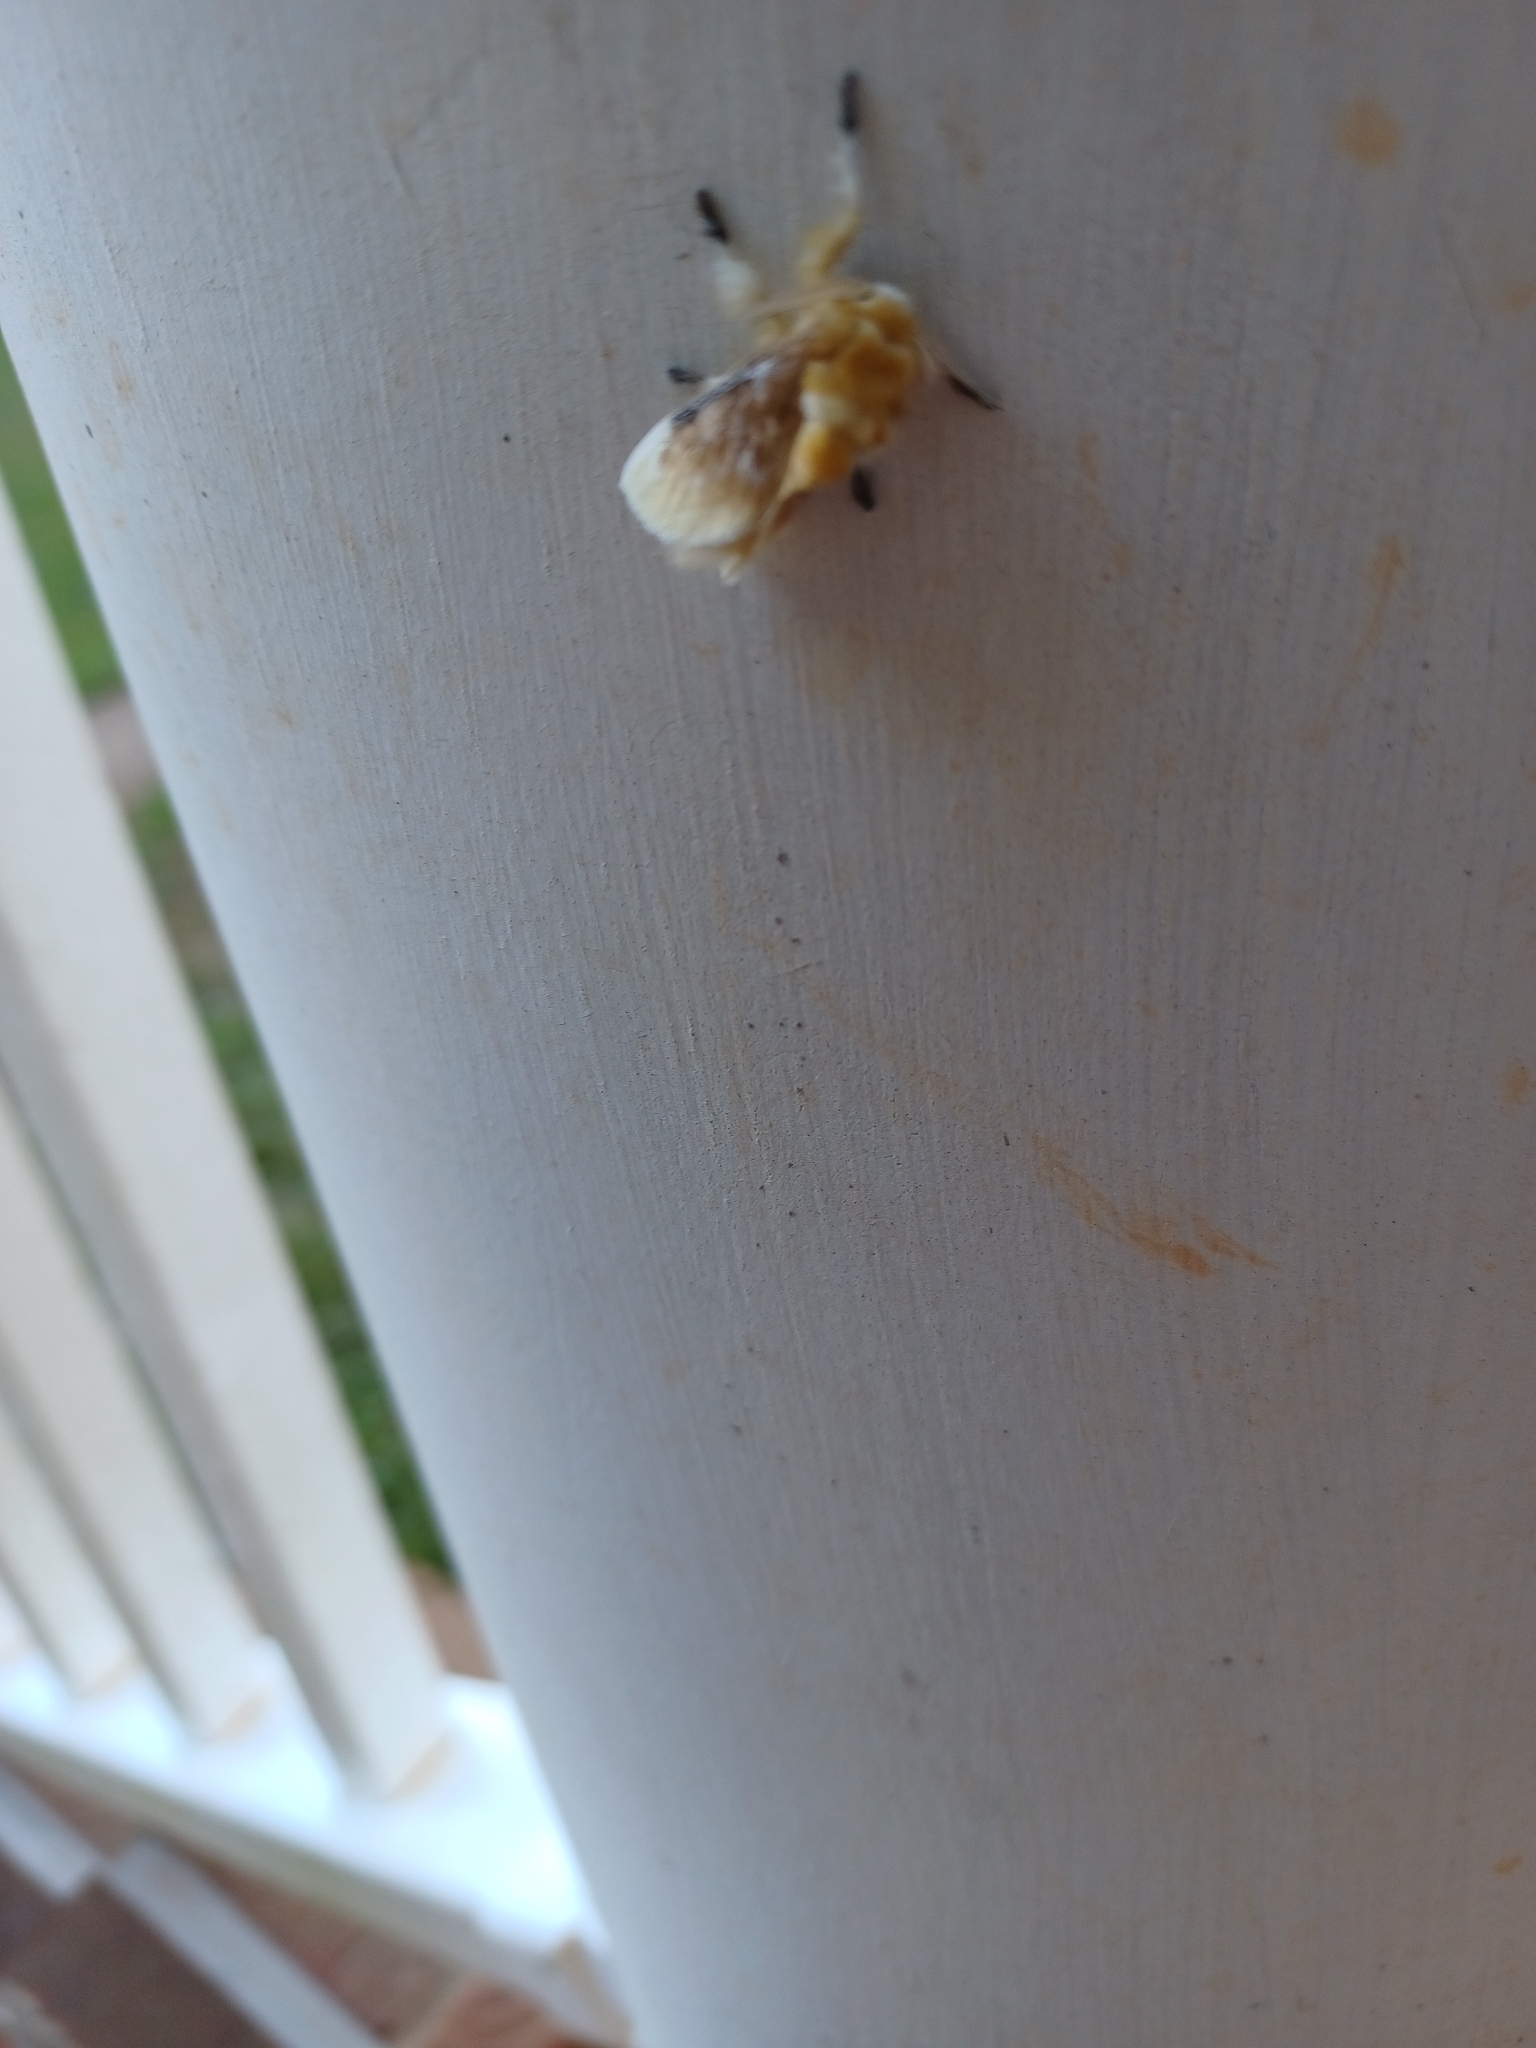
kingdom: Animalia
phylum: Arthropoda
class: Insecta
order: Lepidoptera
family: Megalopygidae
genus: Megalopyge
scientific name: Megalopyge opercularis
